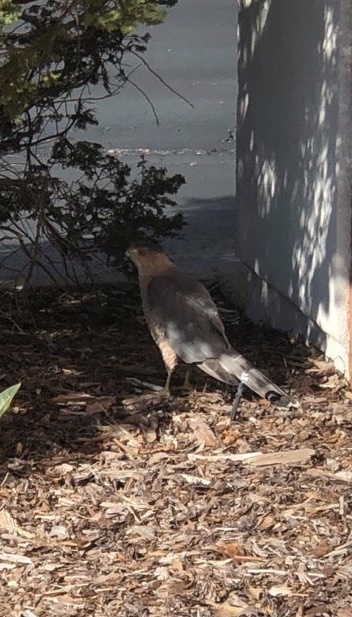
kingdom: Animalia
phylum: Chordata
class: Aves
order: Accipitriformes
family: Accipitridae
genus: Accipiter
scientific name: Accipiter cooperii
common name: Cooper's hawk
